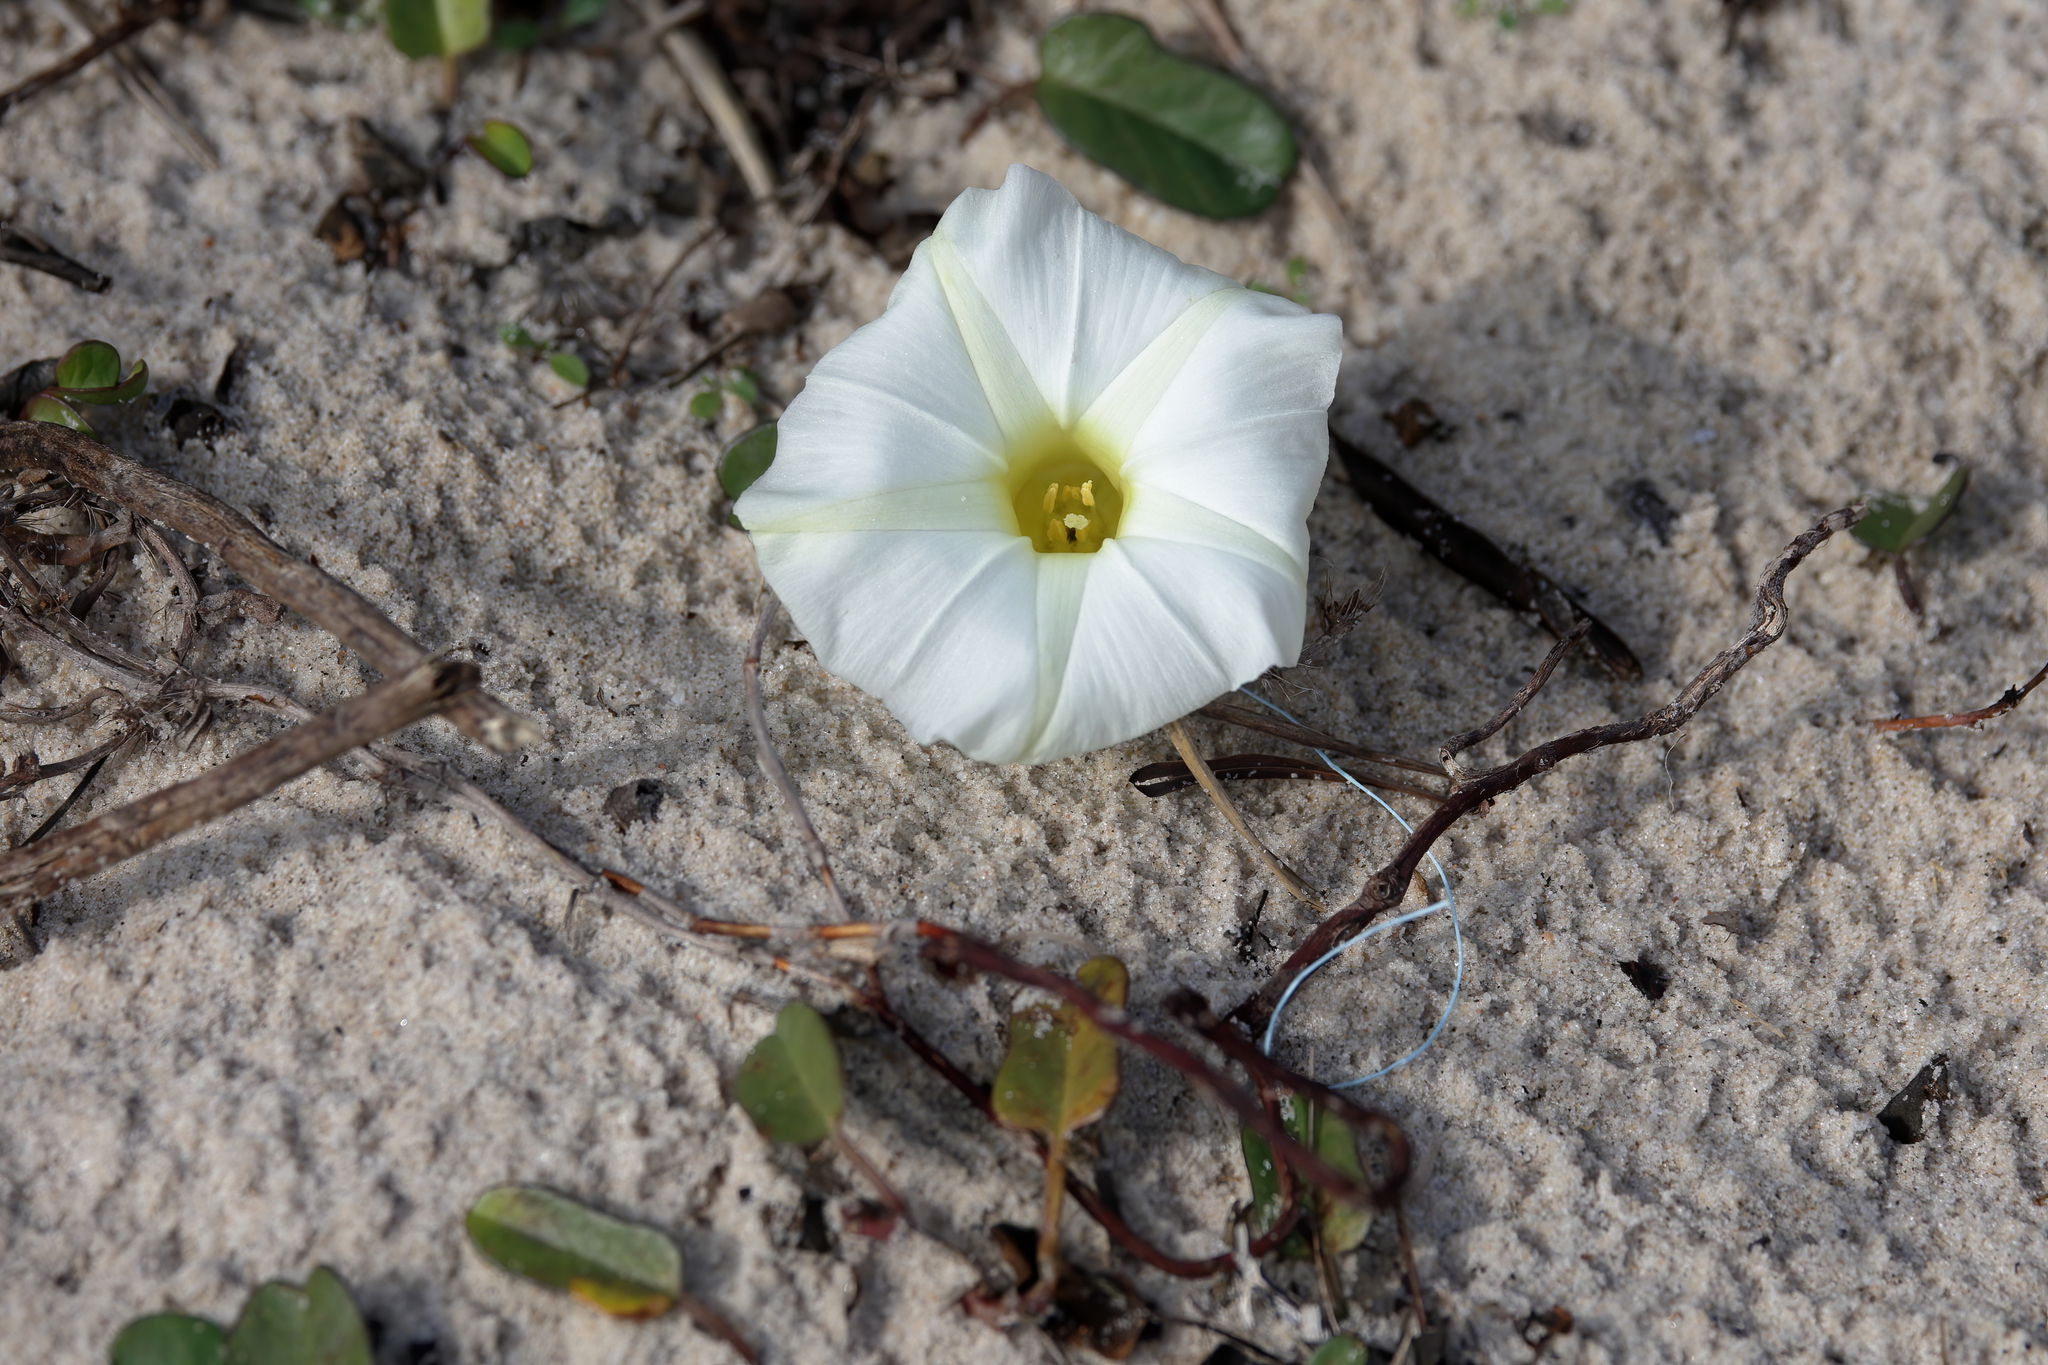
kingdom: Plantae
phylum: Tracheophyta
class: Magnoliopsida
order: Solanales
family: Convolvulaceae
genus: Ipomoea
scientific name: Ipomoea imperati
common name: Fiddle-leaf morning-glory
